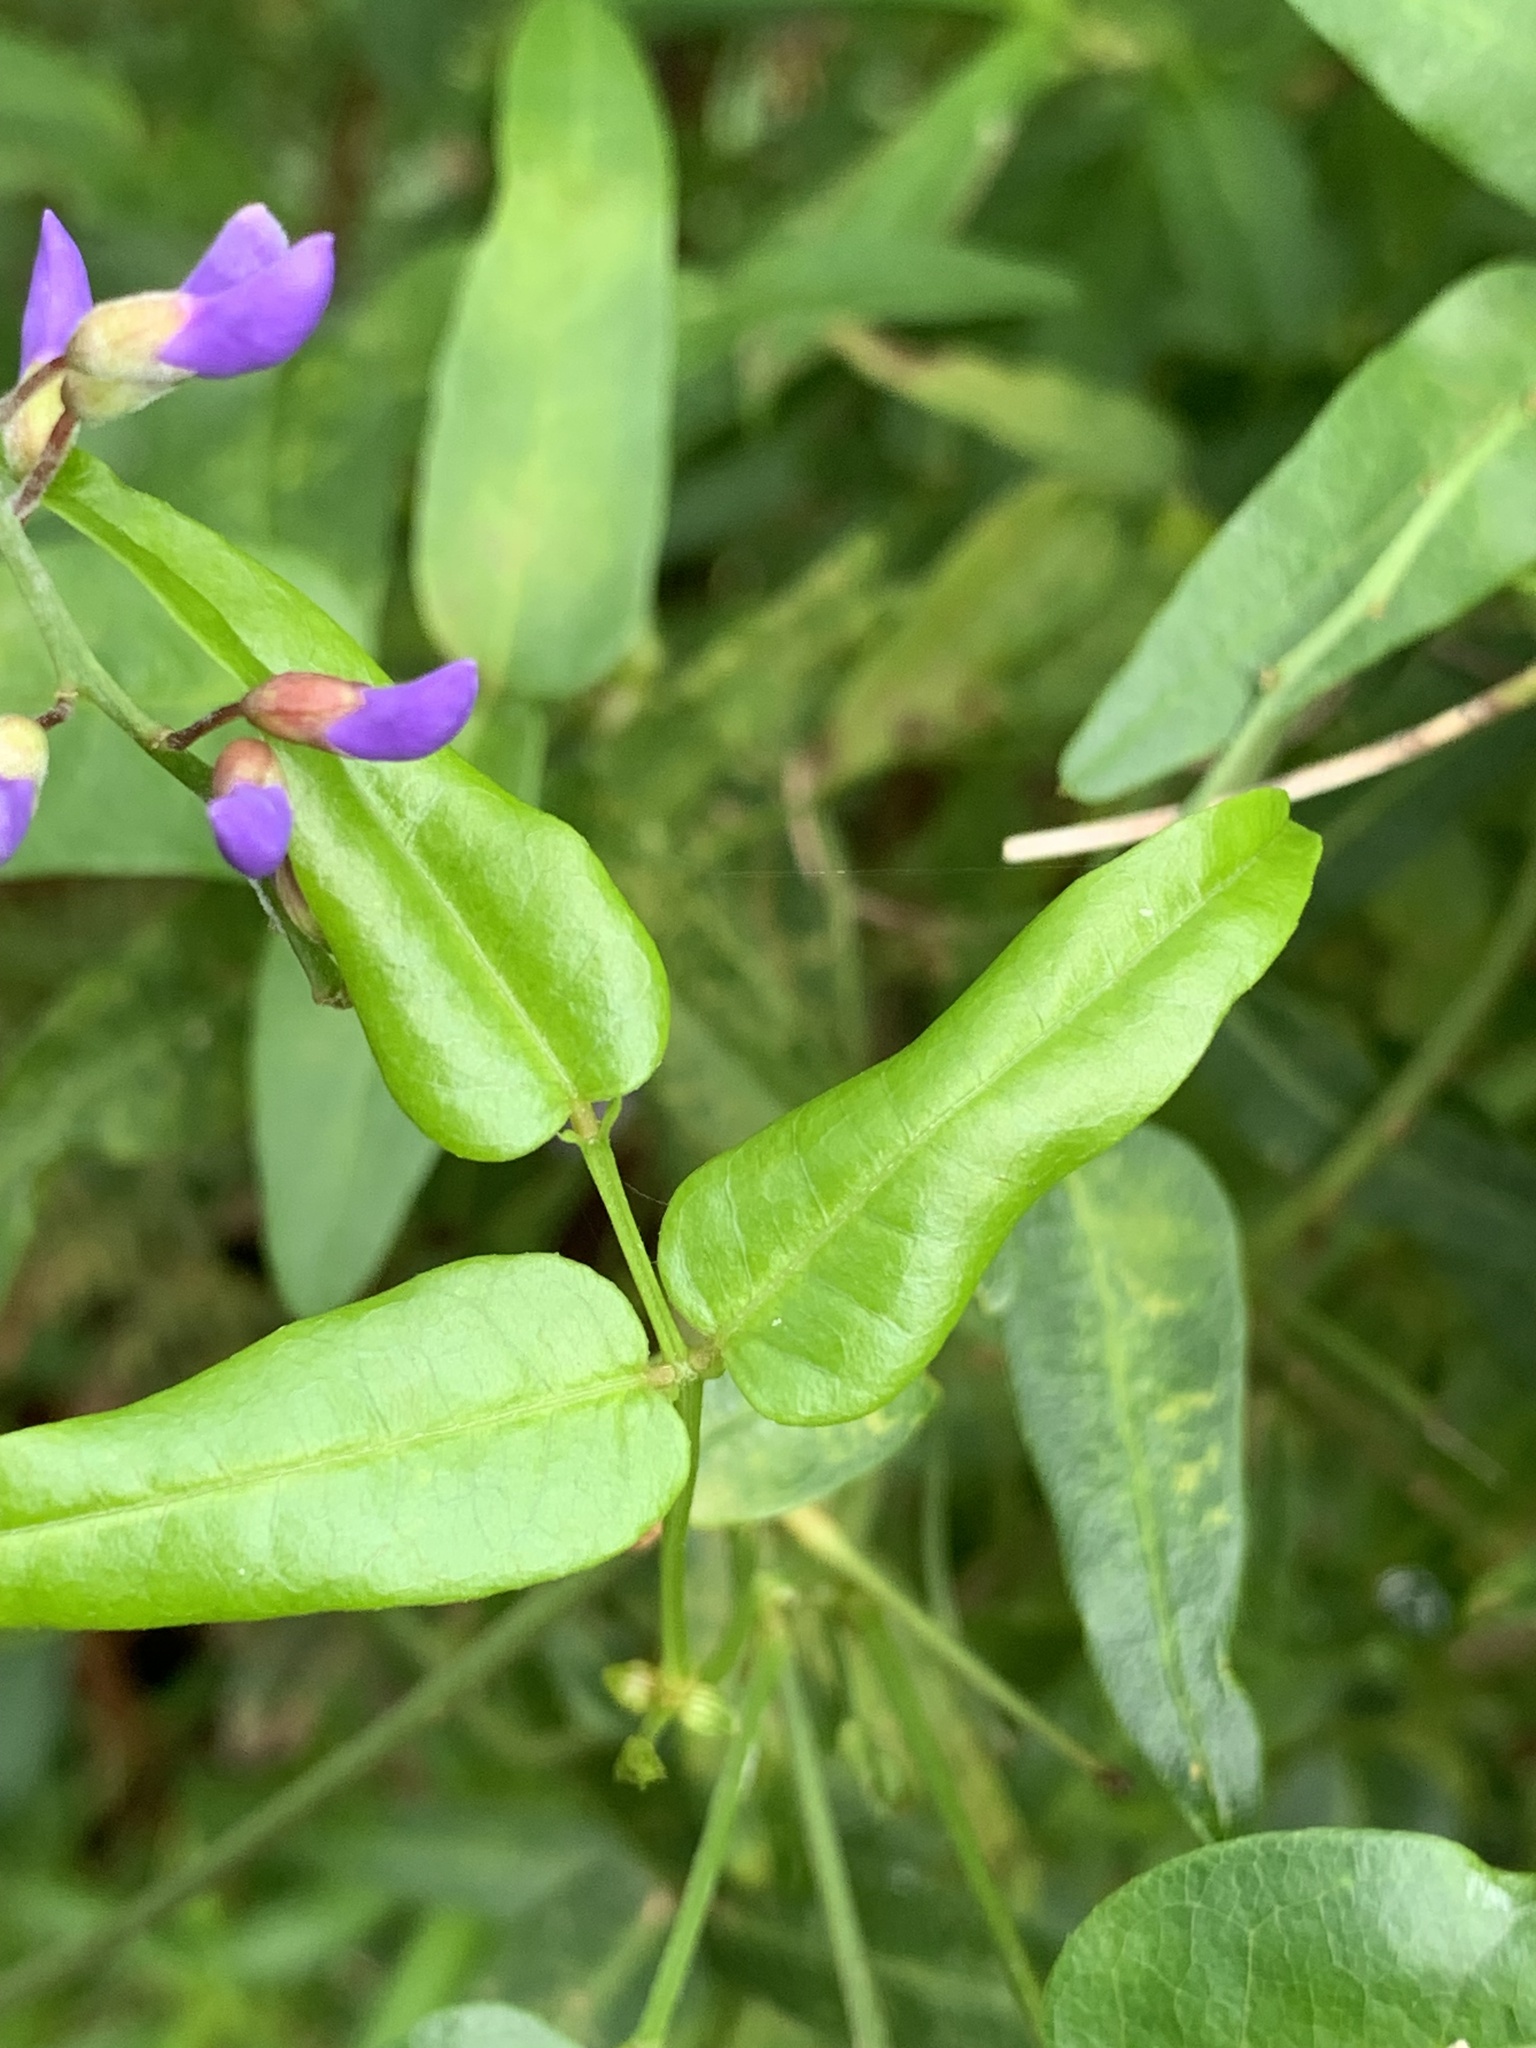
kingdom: Plantae
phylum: Tracheophyta
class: Magnoliopsida
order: Fabales
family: Fabaceae
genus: Hardenbergia
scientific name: Hardenbergia comptoniana
